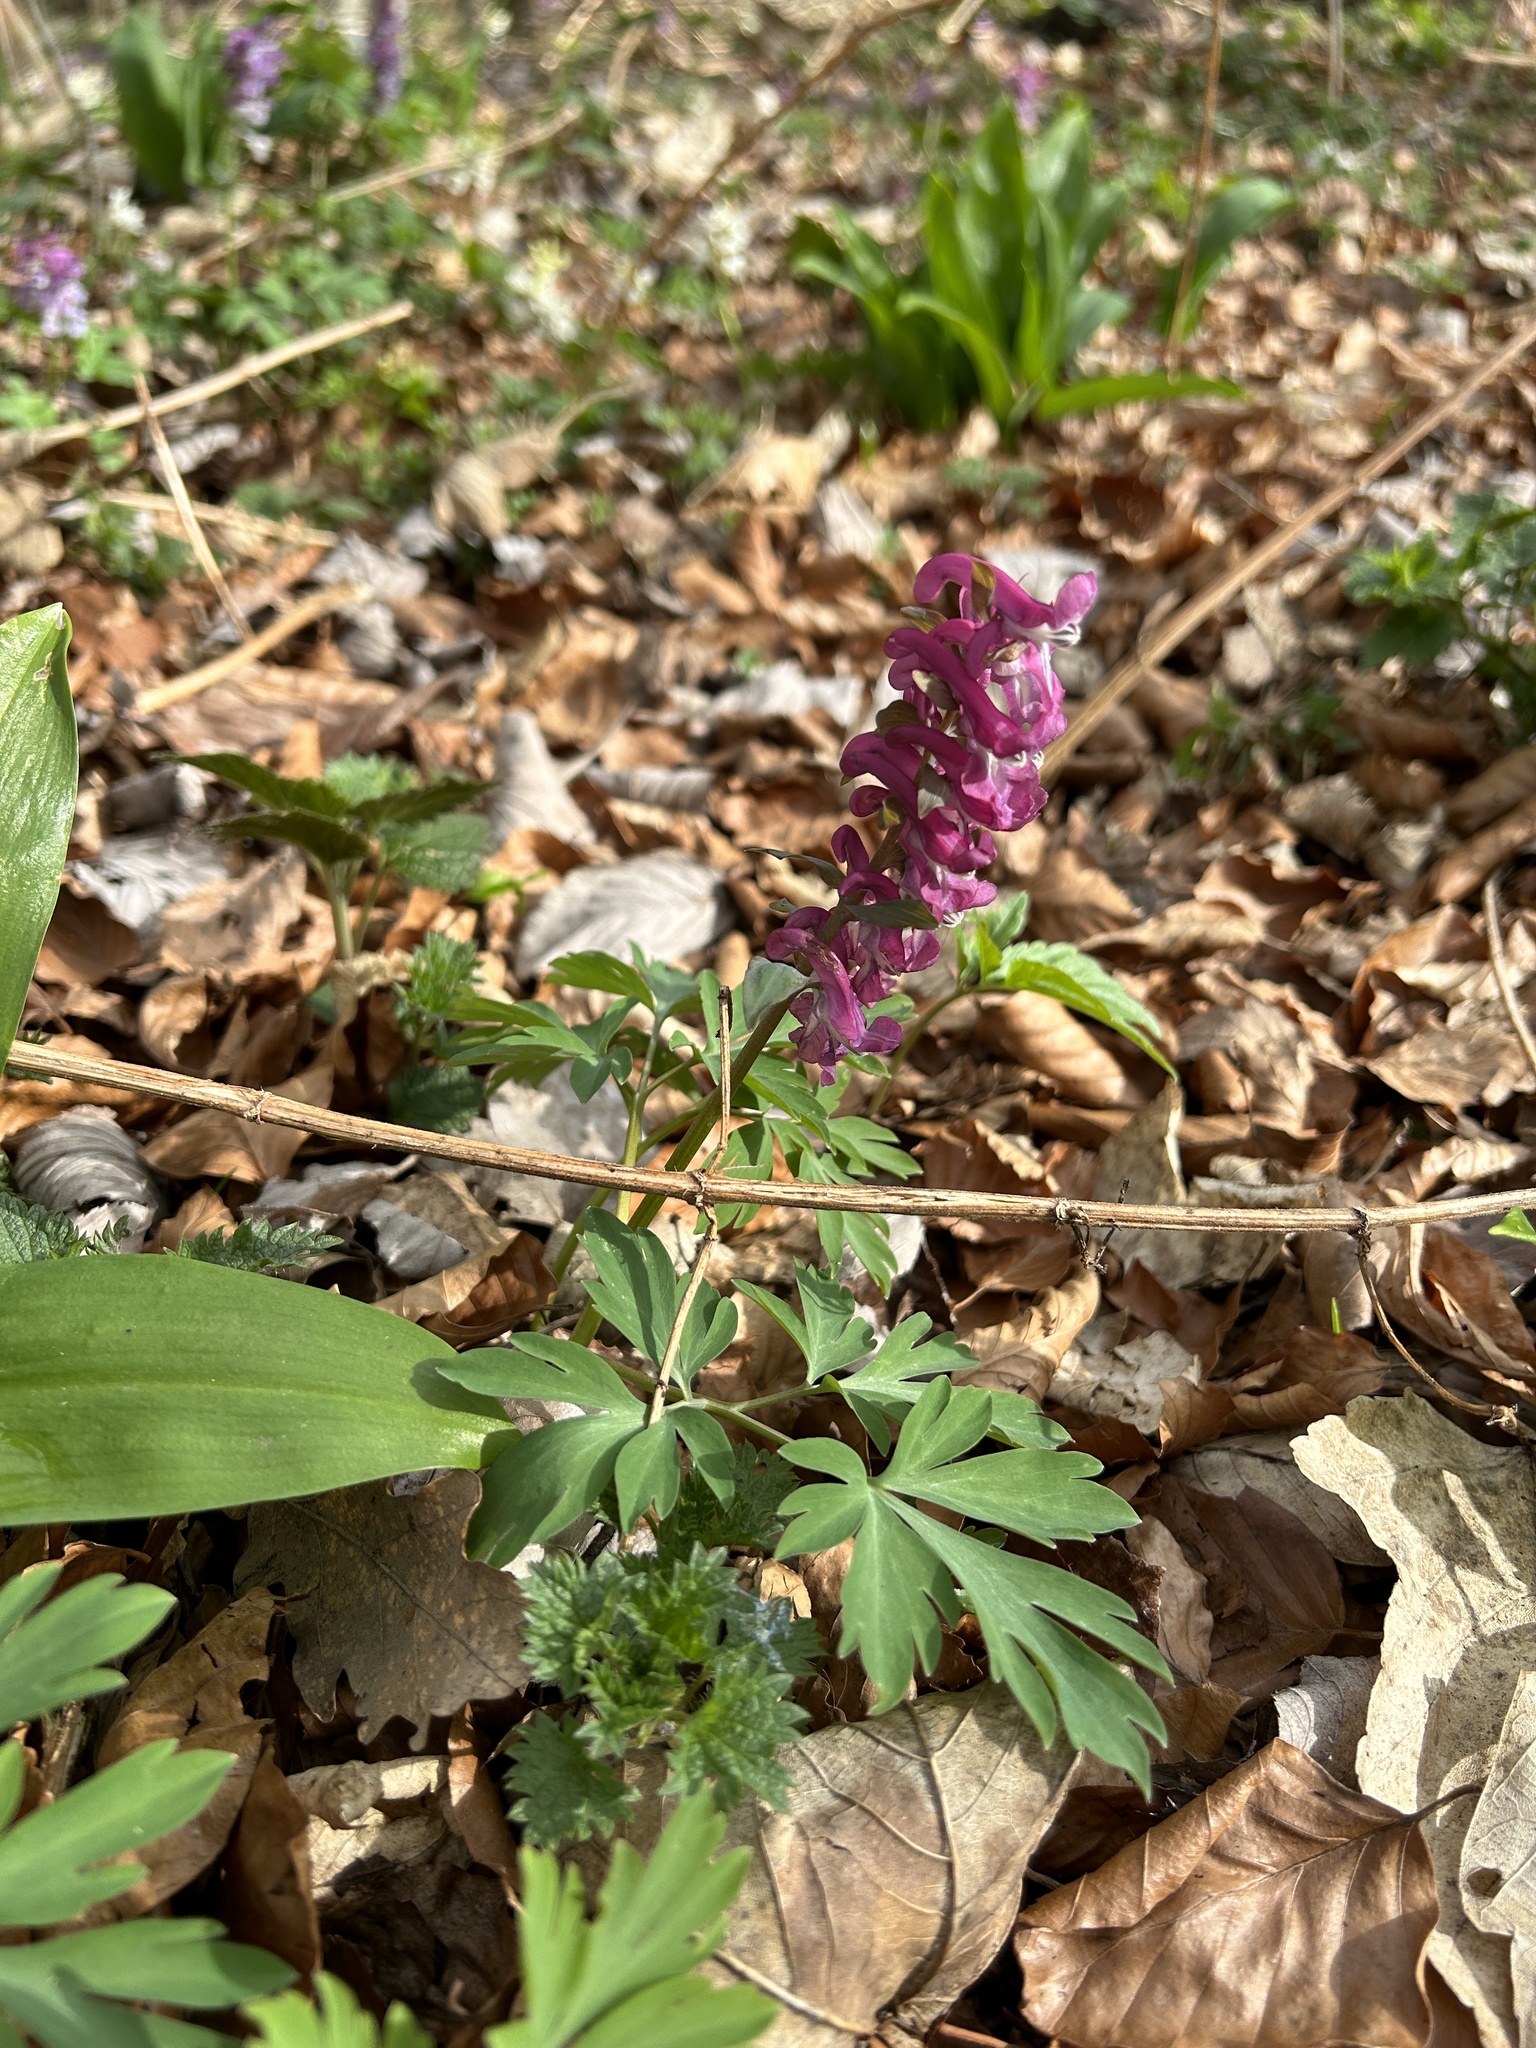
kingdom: Plantae
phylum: Tracheophyta
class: Magnoliopsida
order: Ranunculales
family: Papaveraceae
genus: Corydalis
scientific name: Corydalis cava
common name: Hollowroot
